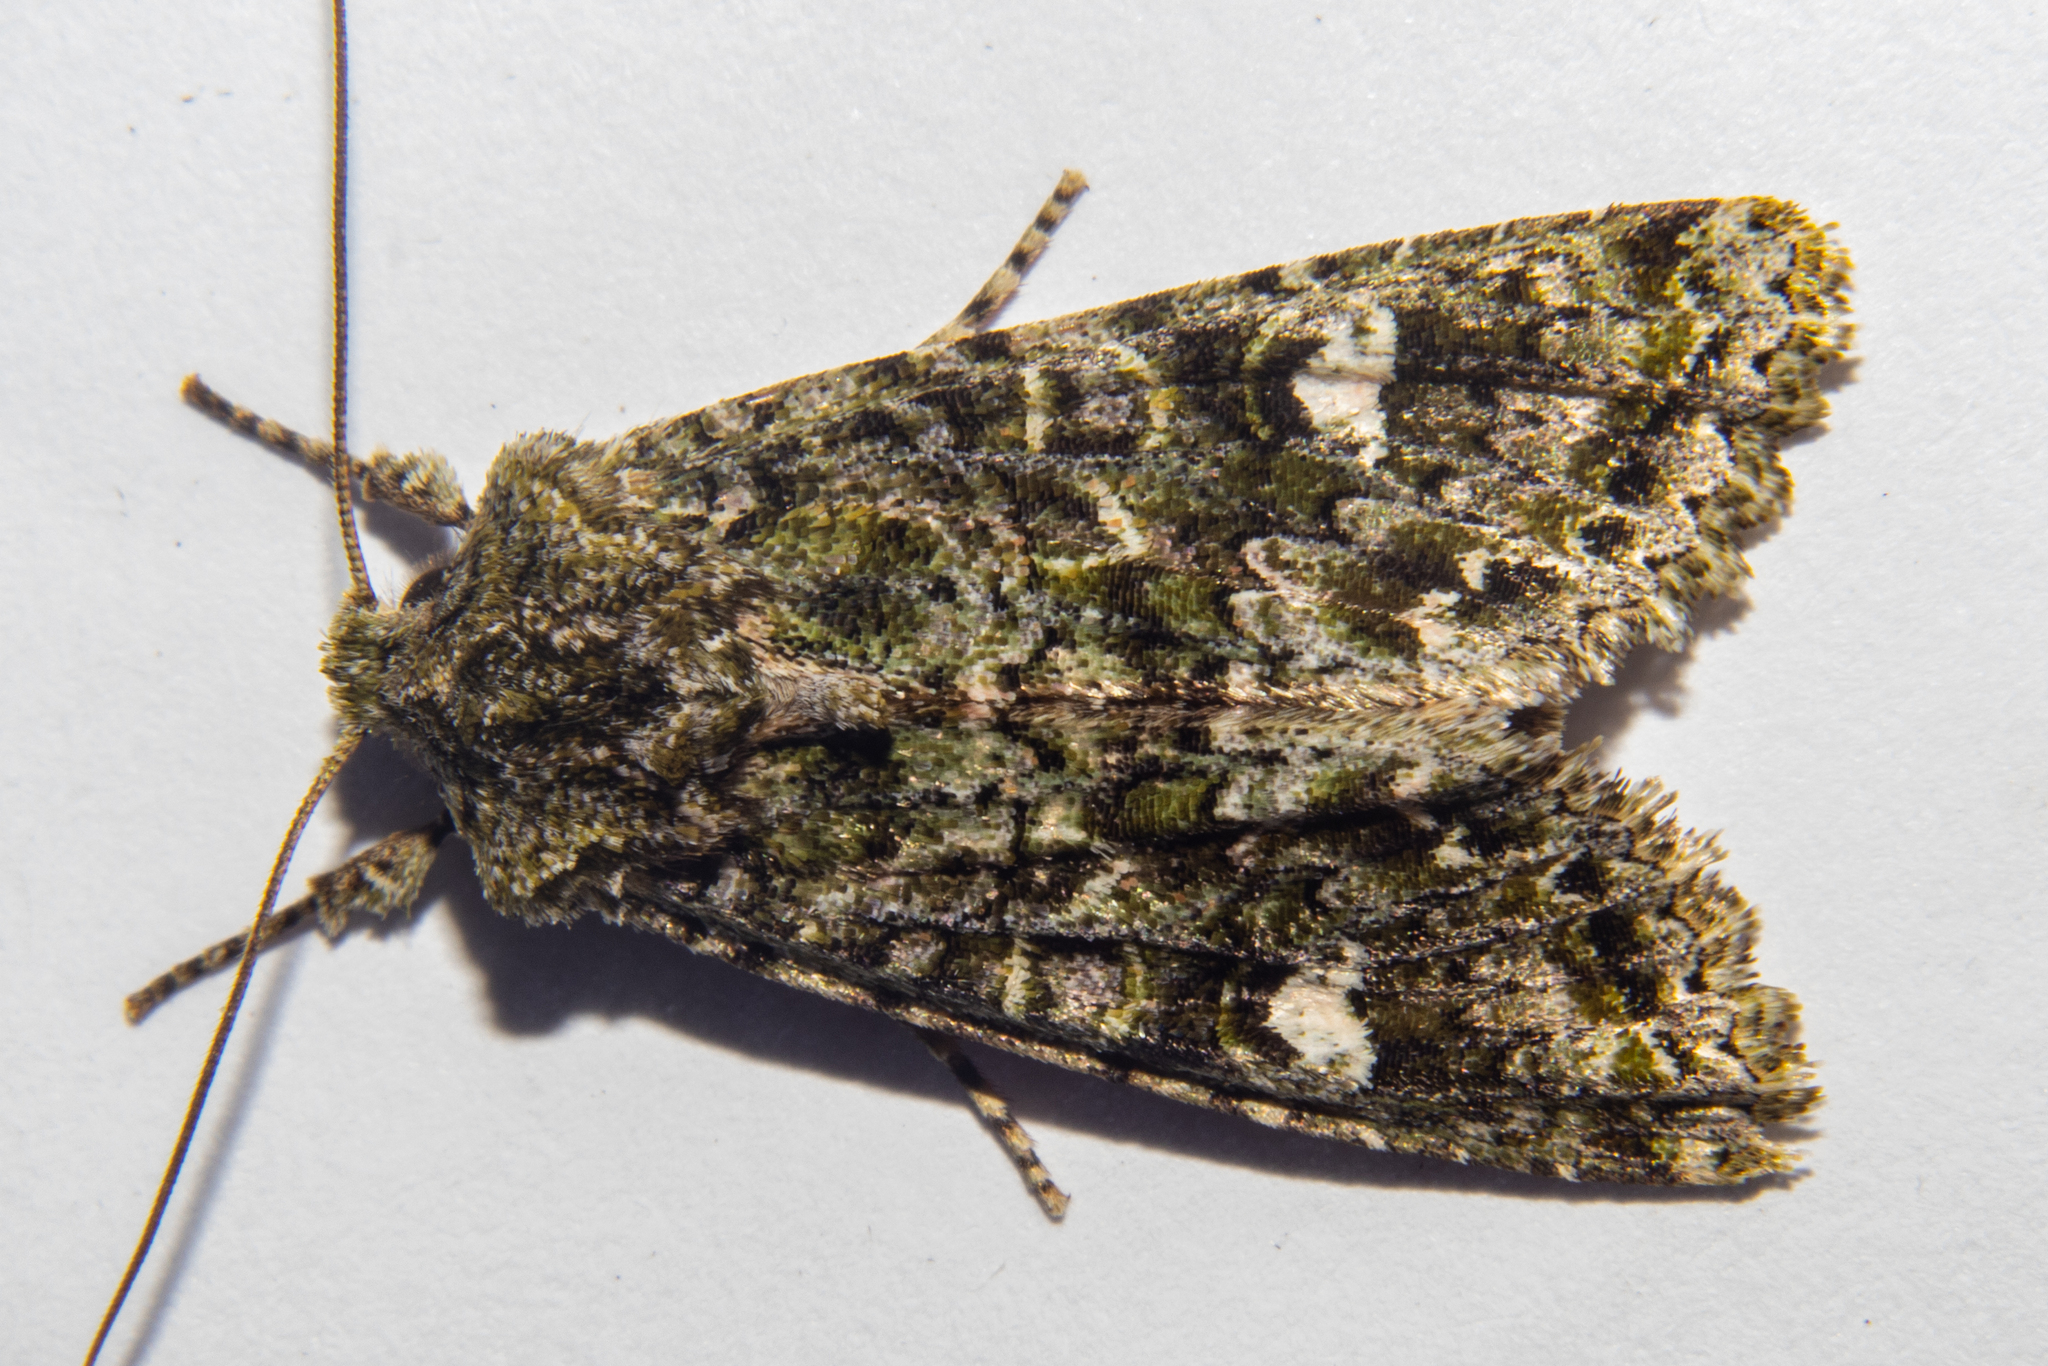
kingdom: Animalia
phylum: Arthropoda
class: Insecta
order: Lepidoptera
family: Noctuidae
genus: Ichneutica
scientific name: Ichneutica
